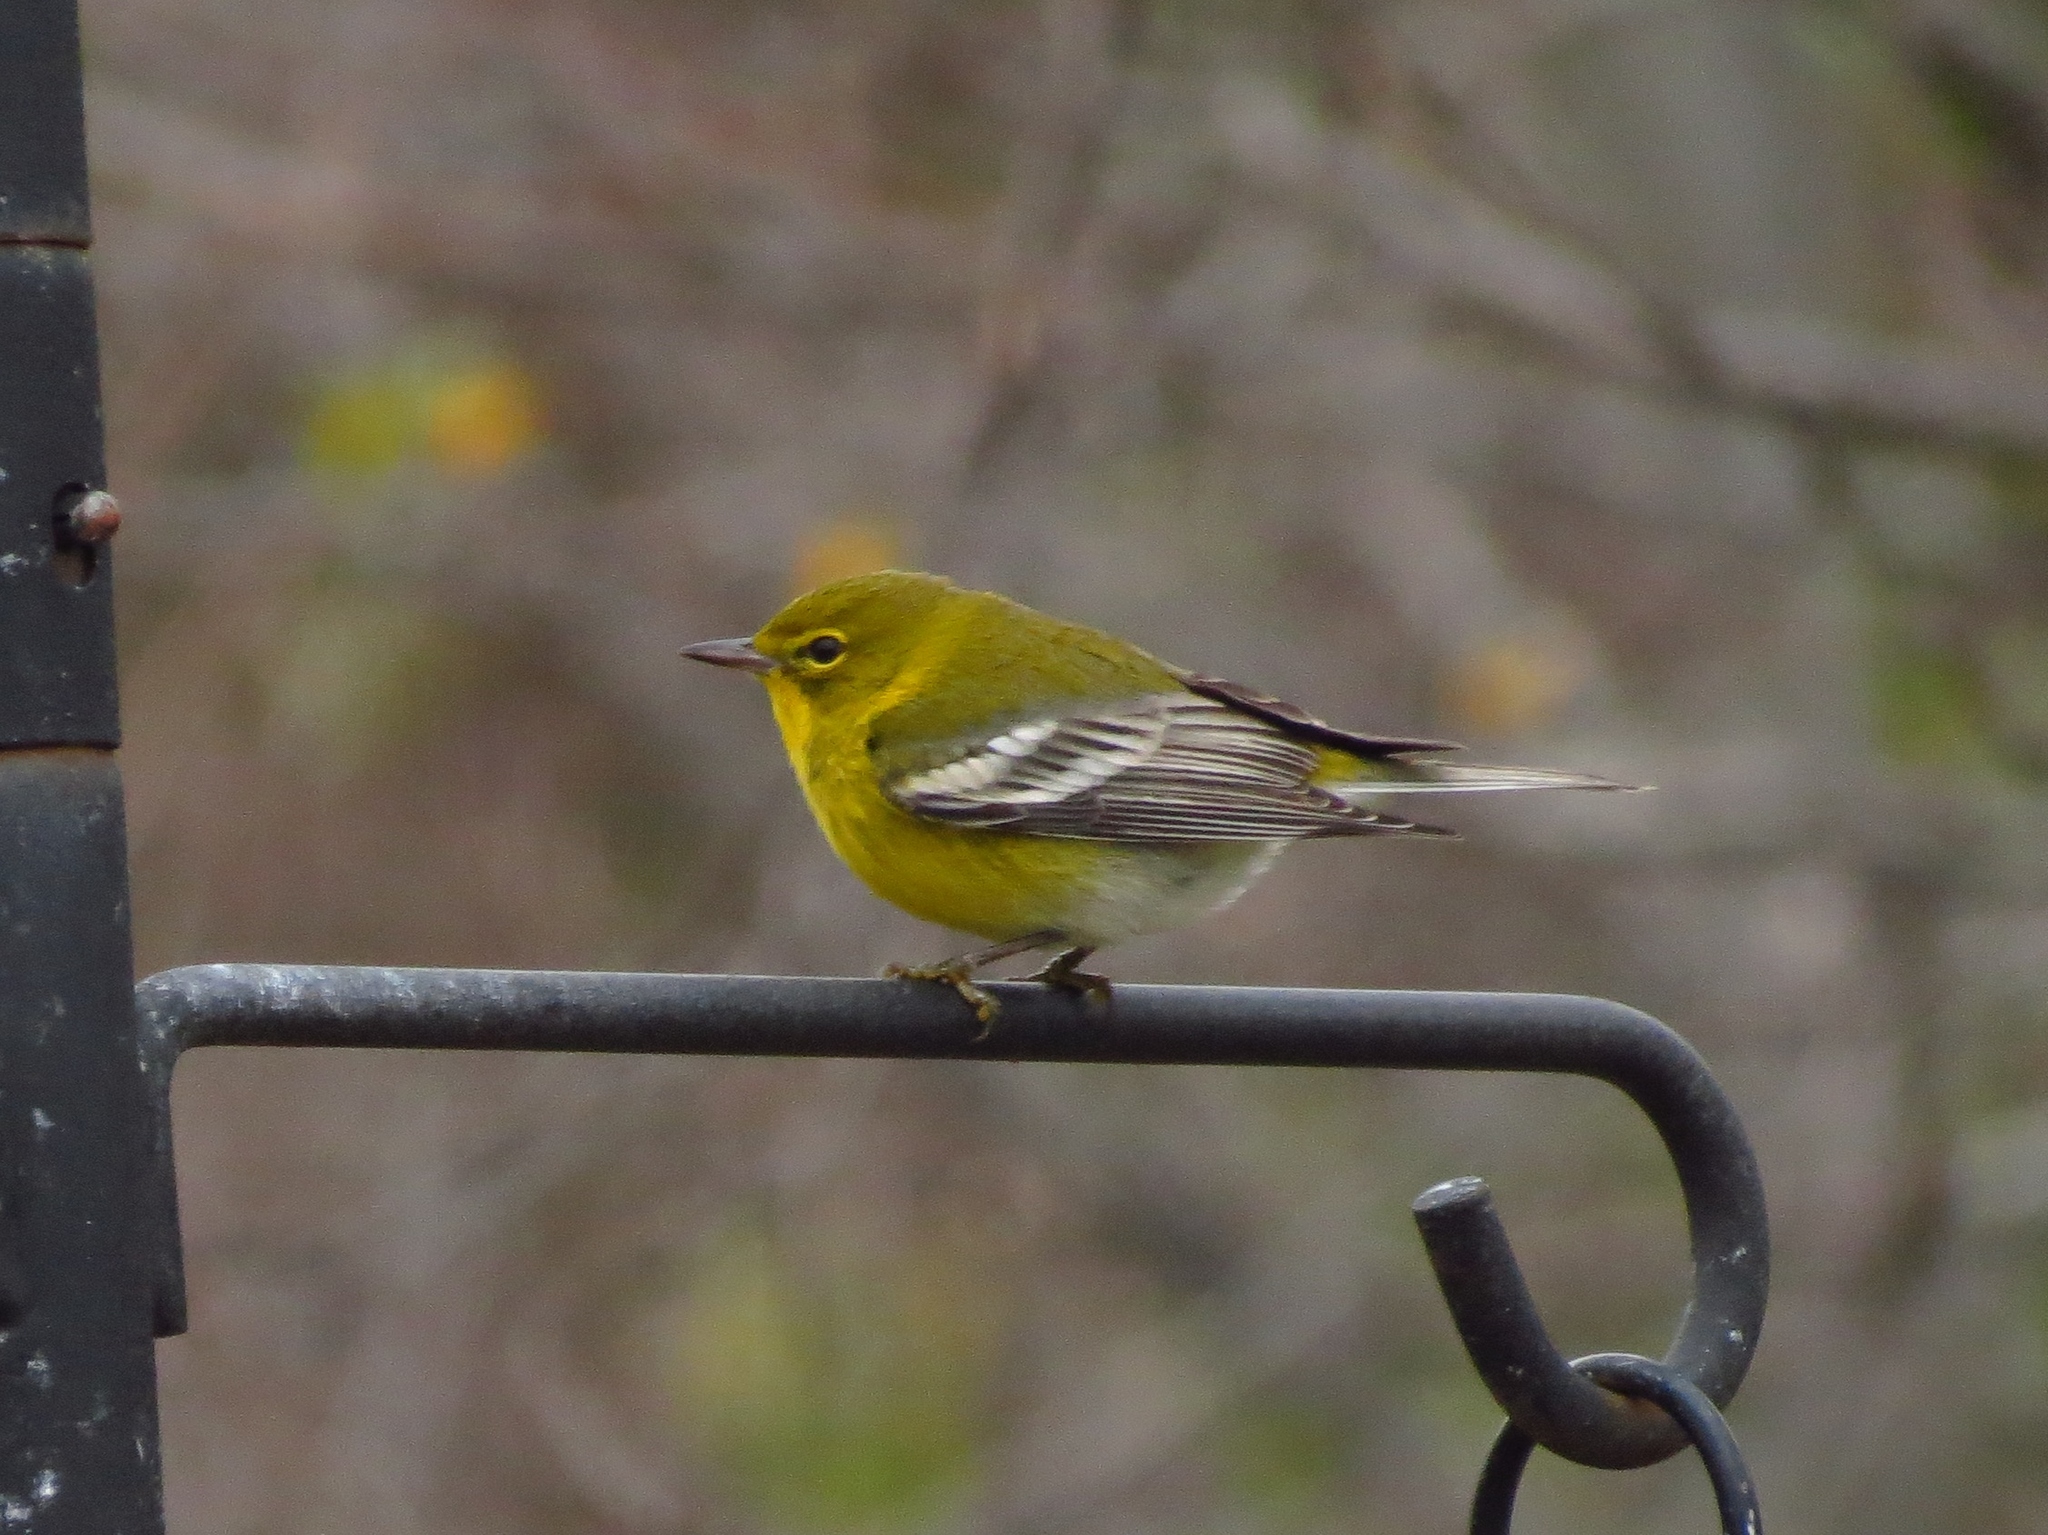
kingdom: Animalia
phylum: Chordata
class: Aves
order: Passeriformes
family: Parulidae
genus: Setophaga
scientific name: Setophaga pinus
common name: Pine warbler
